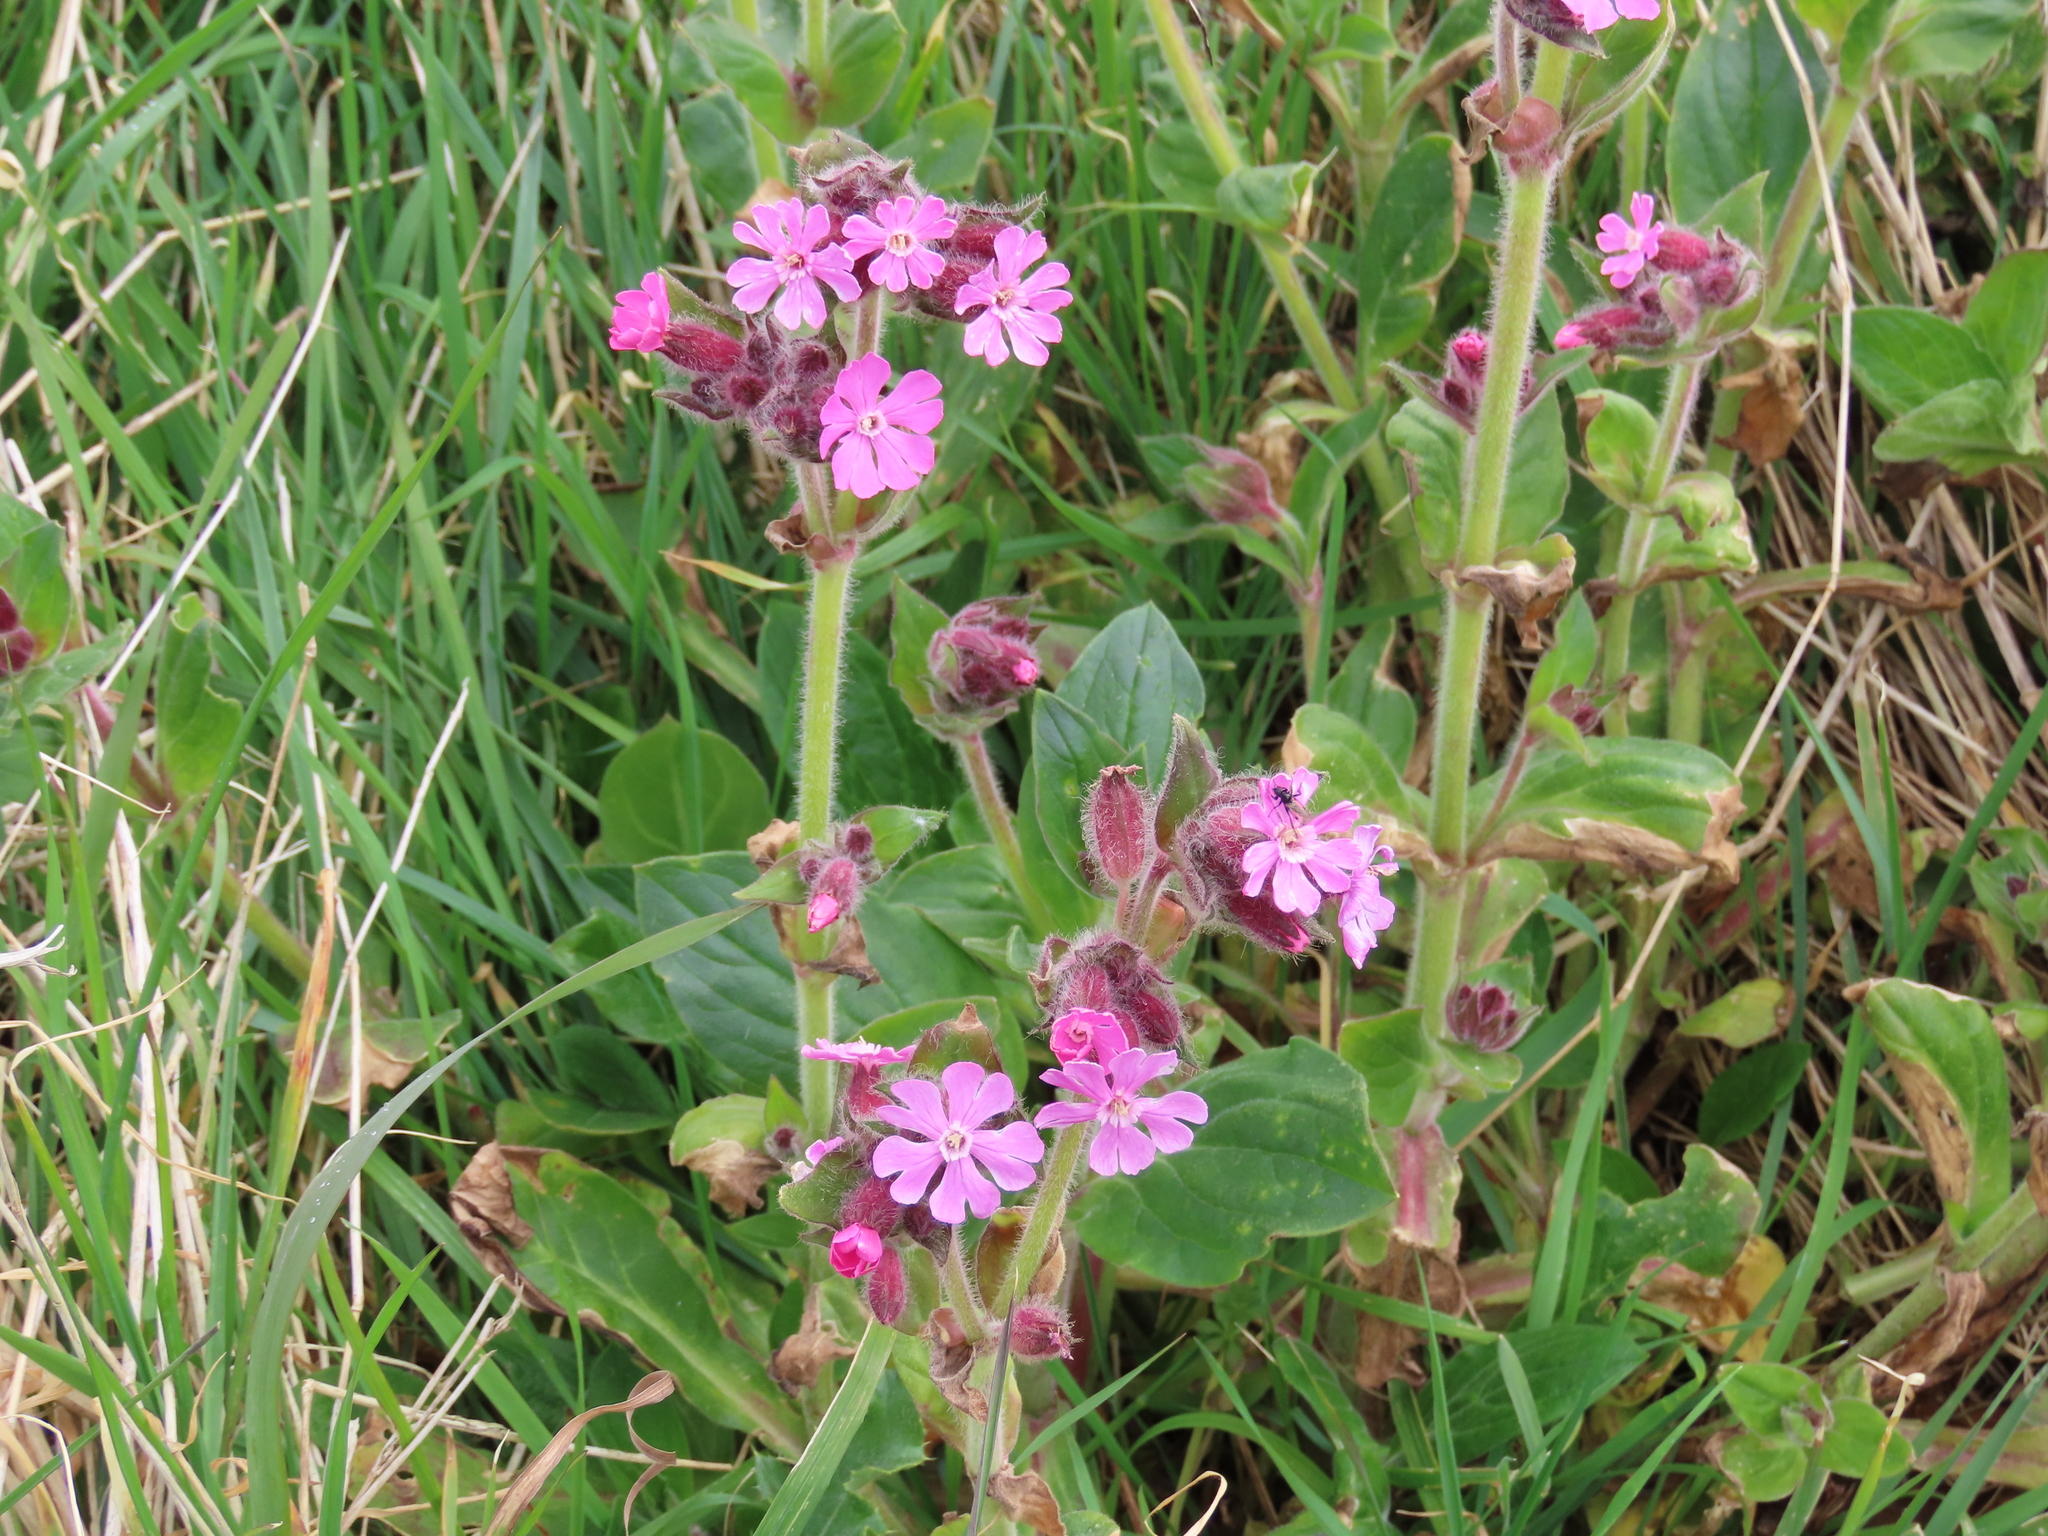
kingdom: Plantae
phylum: Tracheophyta
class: Magnoliopsida
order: Caryophyllales
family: Caryophyllaceae
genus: Silene
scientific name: Silene dioica
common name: Red campion
